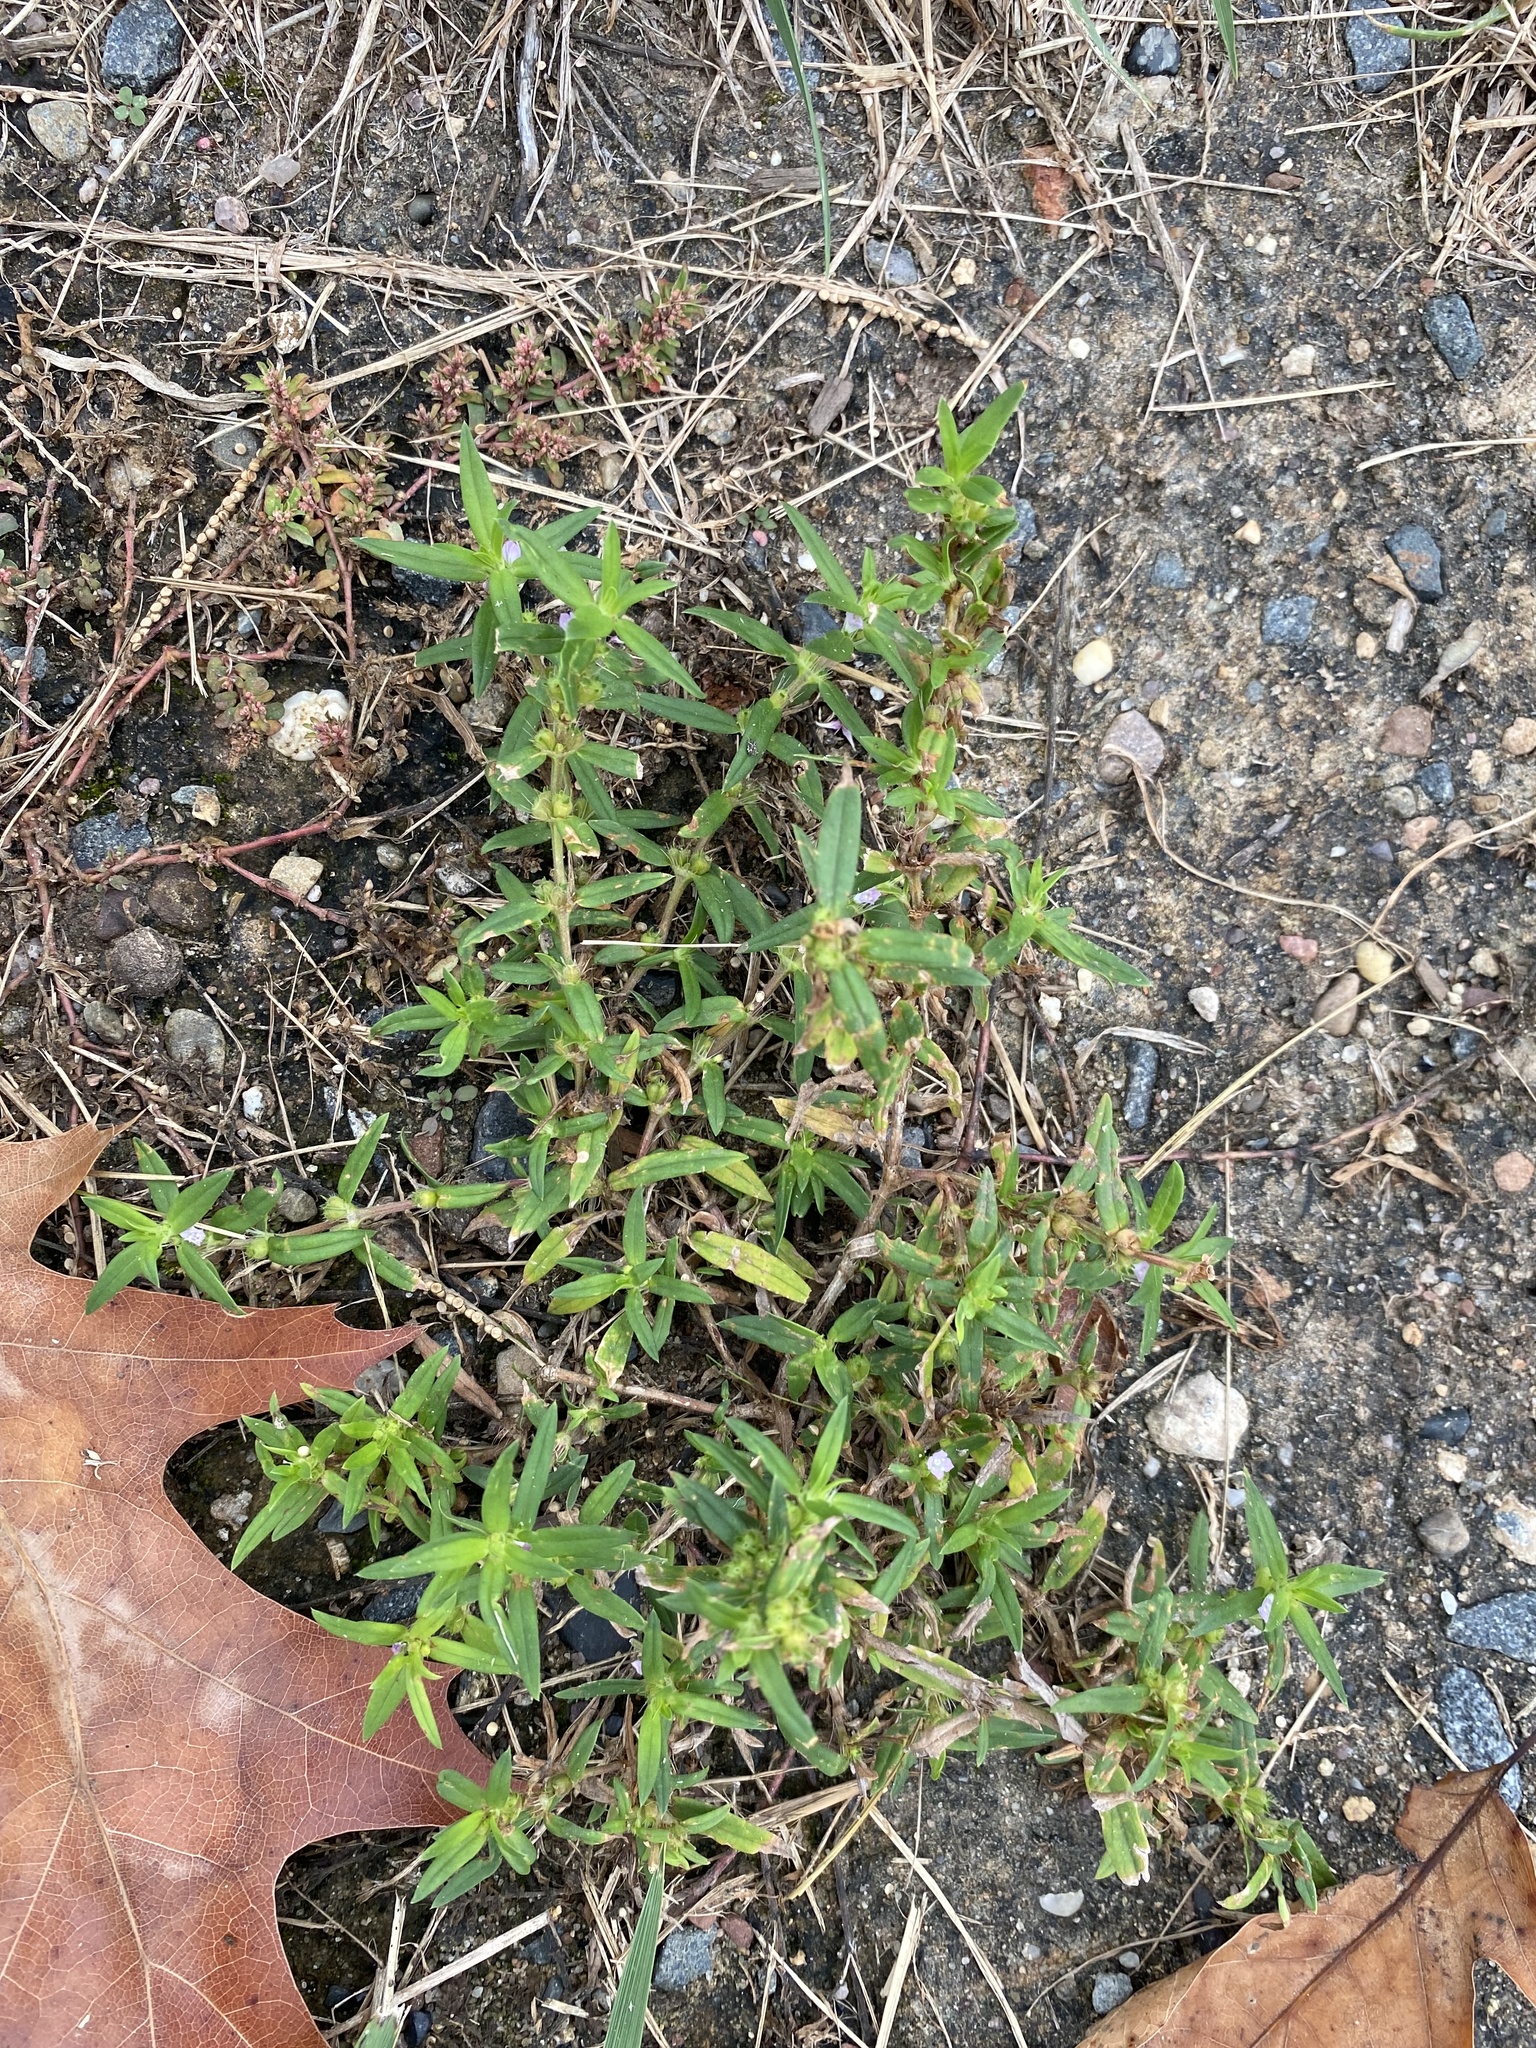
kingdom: Plantae
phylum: Tracheophyta
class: Magnoliopsida
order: Gentianales
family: Rubiaceae
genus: Hexasepalum
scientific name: Hexasepalum teres
